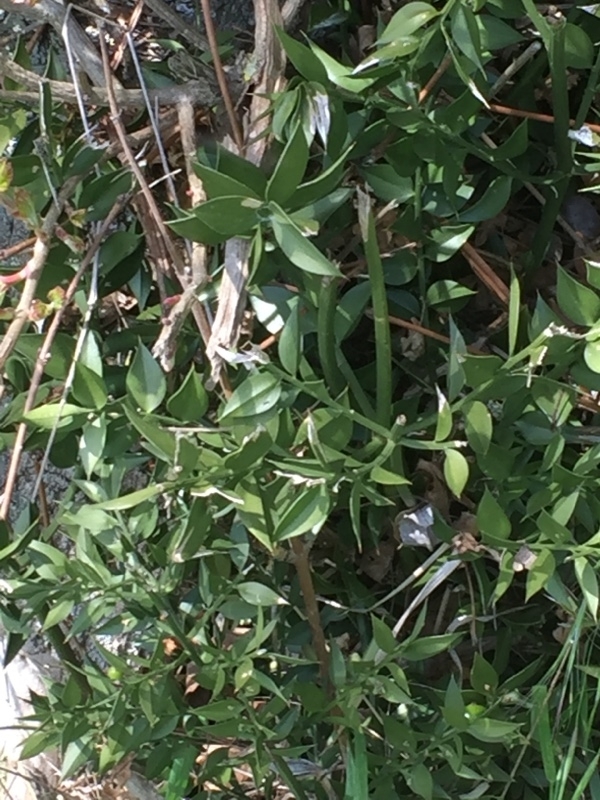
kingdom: Plantae
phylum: Tracheophyta
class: Liliopsida
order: Asparagales
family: Asparagaceae
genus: Ruscus
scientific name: Ruscus aculeatus
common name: Butcher's-broom
